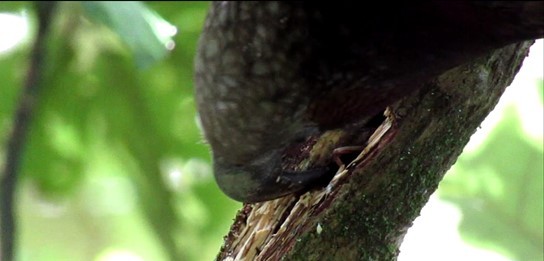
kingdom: Animalia
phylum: Arthropoda
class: Insecta
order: Orthoptera
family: Anostostomatidae
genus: Hemideina
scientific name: Hemideina crassidens
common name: Wellington tree weta
